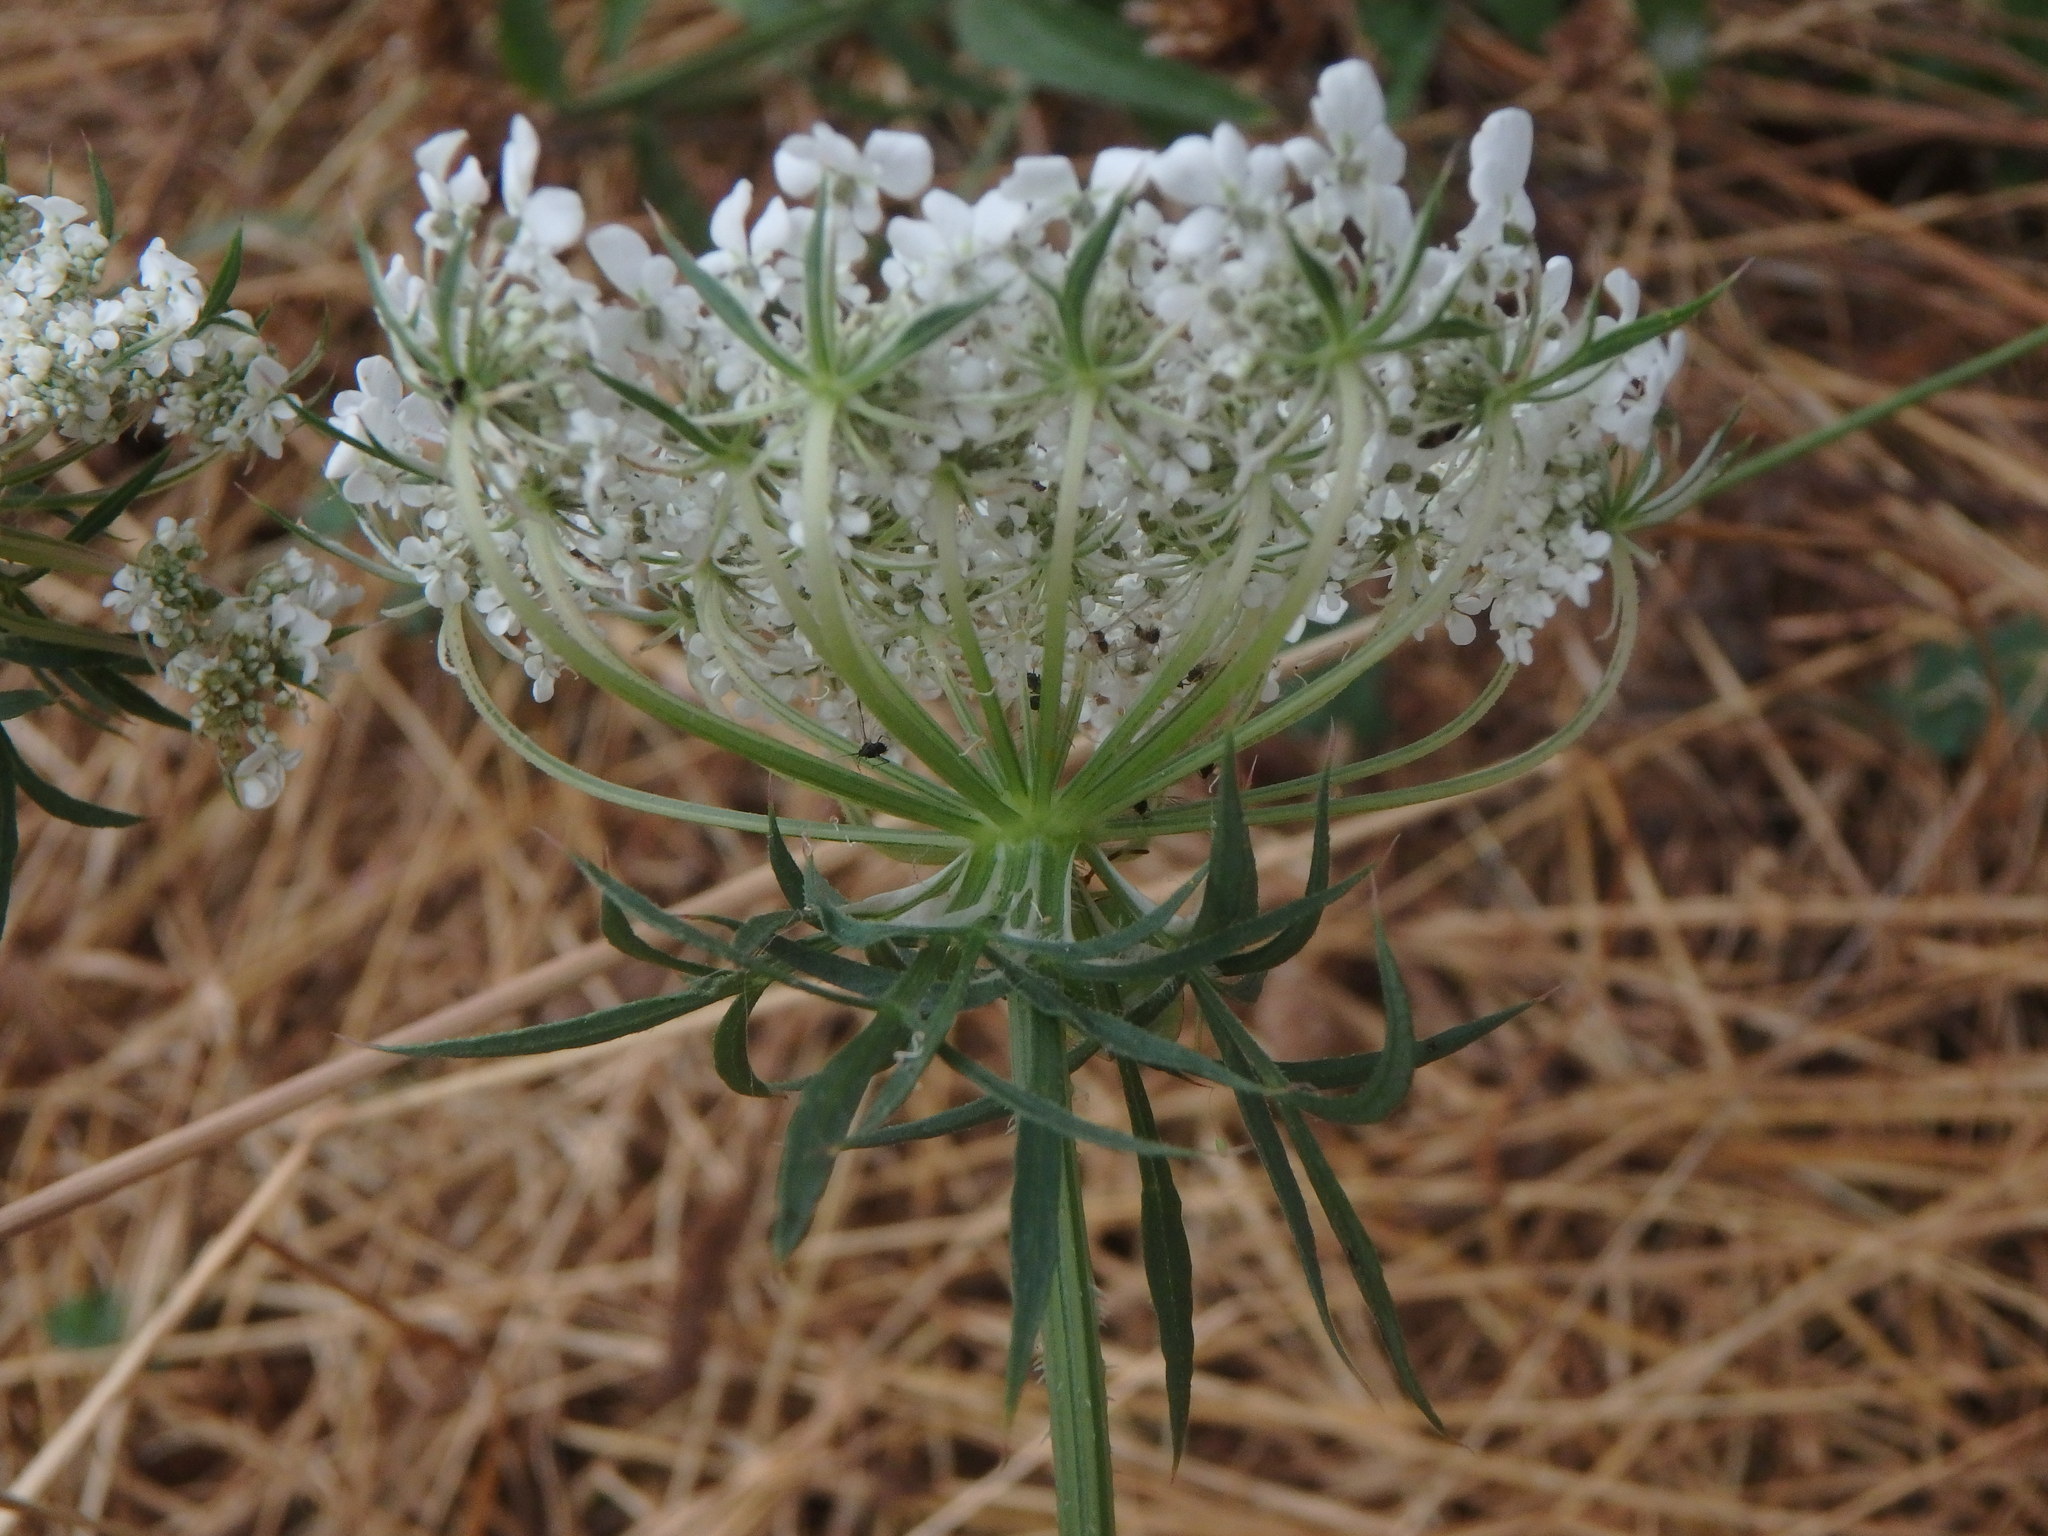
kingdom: Plantae
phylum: Tracheophyta
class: Magnoliopsida
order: Apiales
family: Apiaceae
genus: Daucus
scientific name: Daucus carota
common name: Wild carrot
